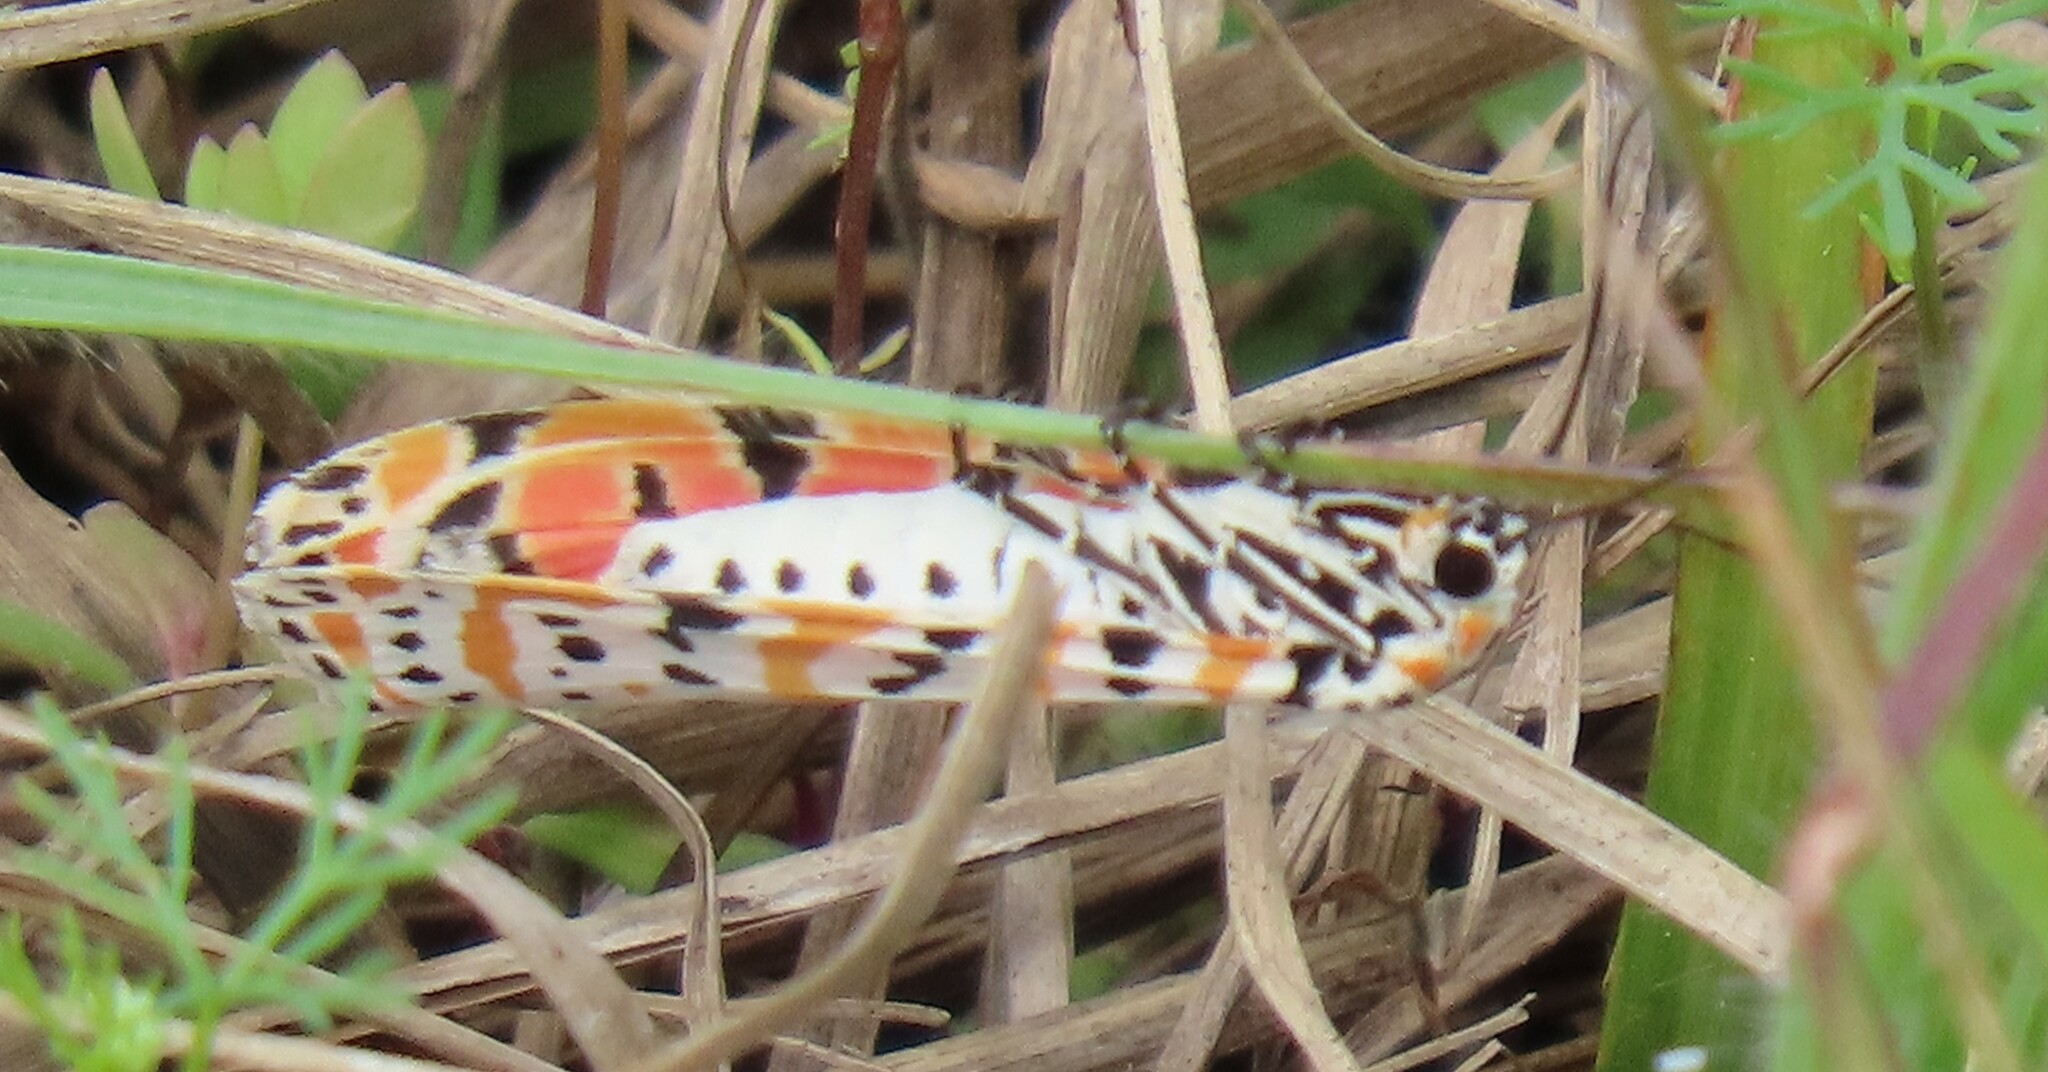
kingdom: Animalia
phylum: Arthropoda
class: Insecta
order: Lepidoptera
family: Erebidae
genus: Utetheisa
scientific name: Utetheisa ornatrix
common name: Beautiful utetheisa
